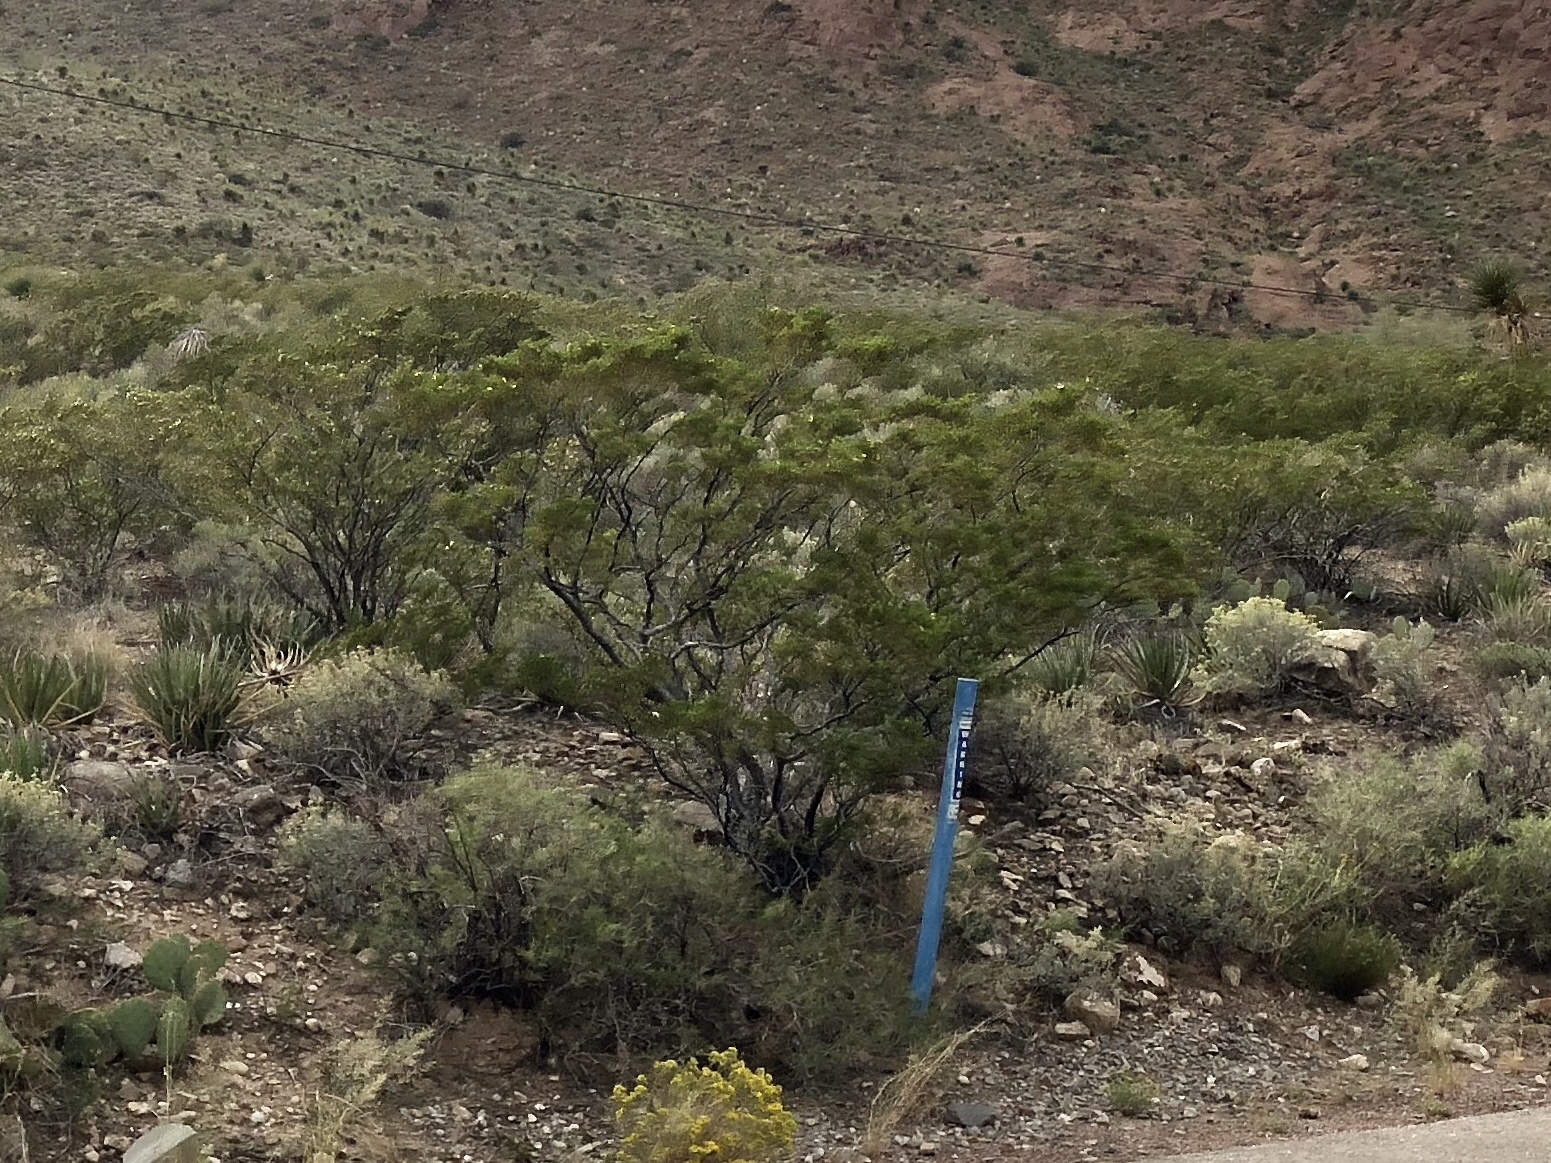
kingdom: Plantae
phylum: Tracheophyta
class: Magnoliopsida
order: Zygophyllales
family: Zygophyllaceae
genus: Larrea
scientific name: Larrea tridentata
